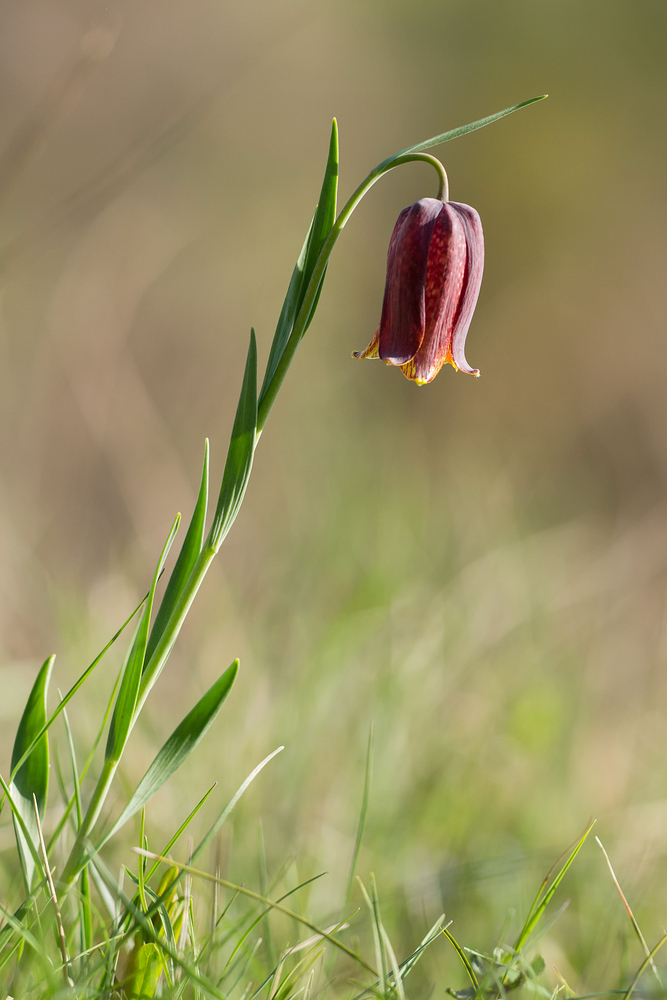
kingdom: Plantae
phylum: Tracheophyta
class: Liliopsida
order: Liliales
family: Liliaceae
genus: Fritillaria
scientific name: Fritillaria pyrenaica
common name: Pyrenean snake's-head
